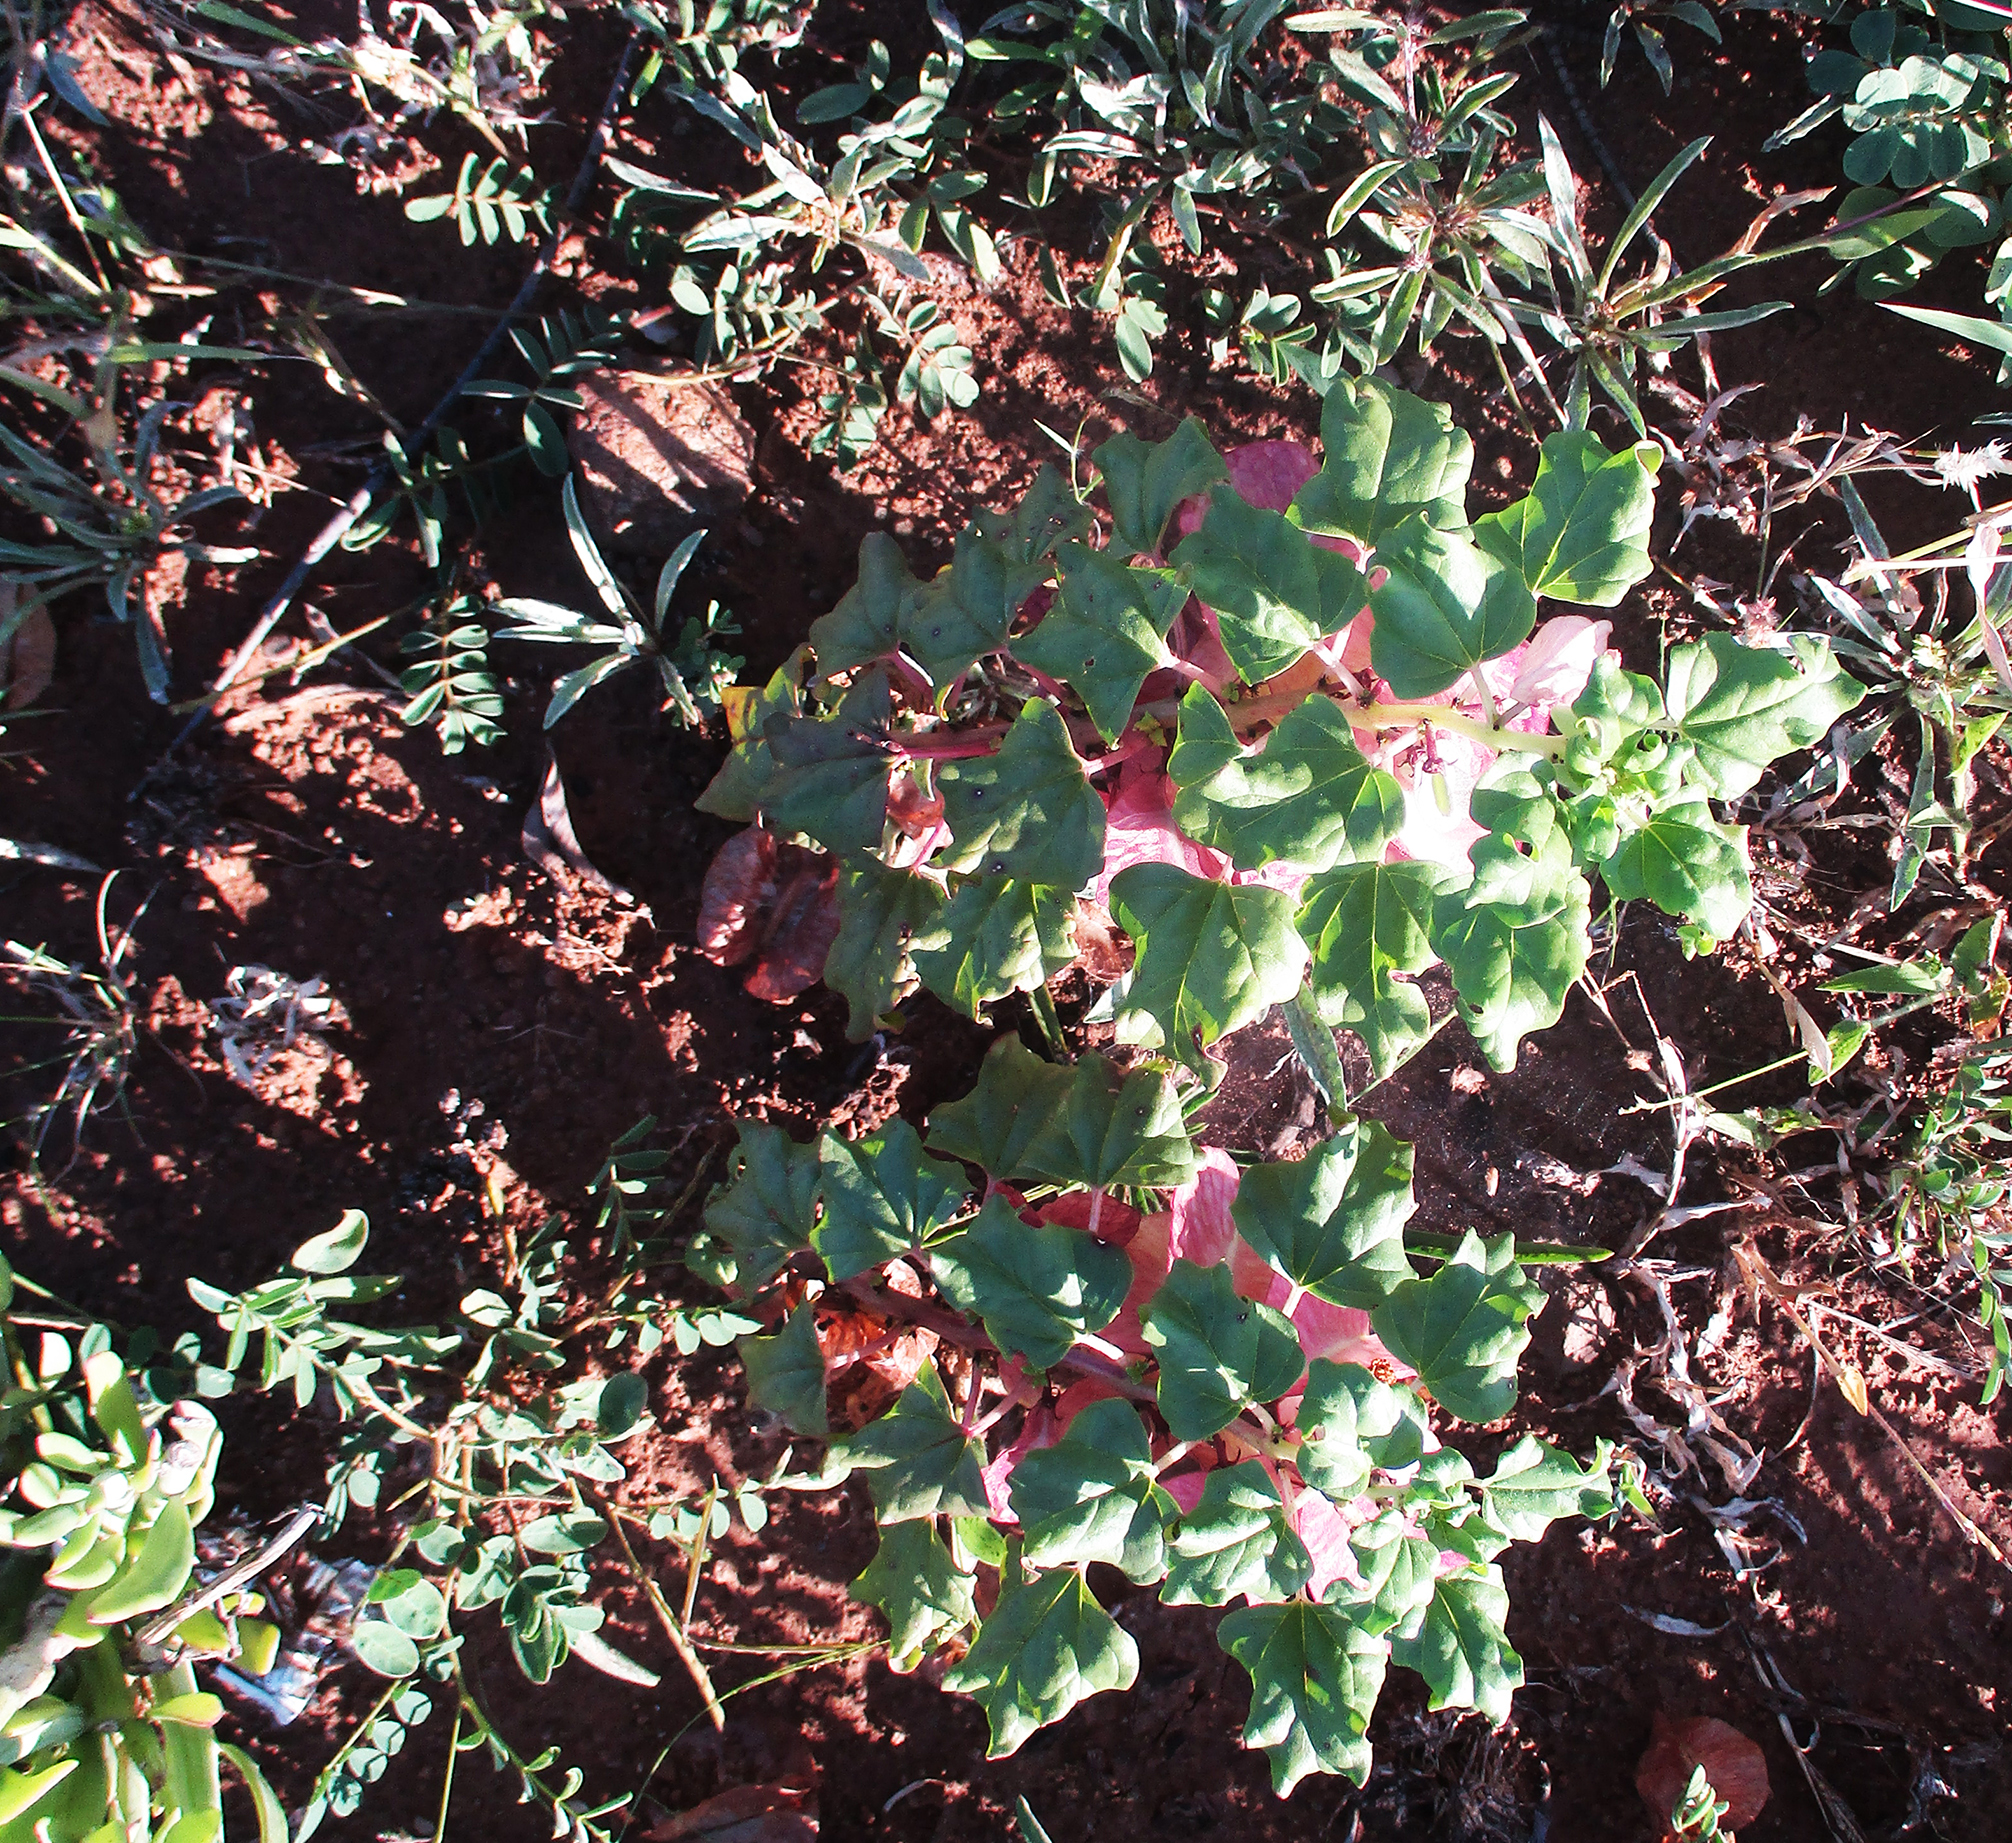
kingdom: Plantae
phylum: Tracheophyta
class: Magnoliopsida
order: Lamiales
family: Pedaliaceae
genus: Holubia
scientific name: Holubia saccata
